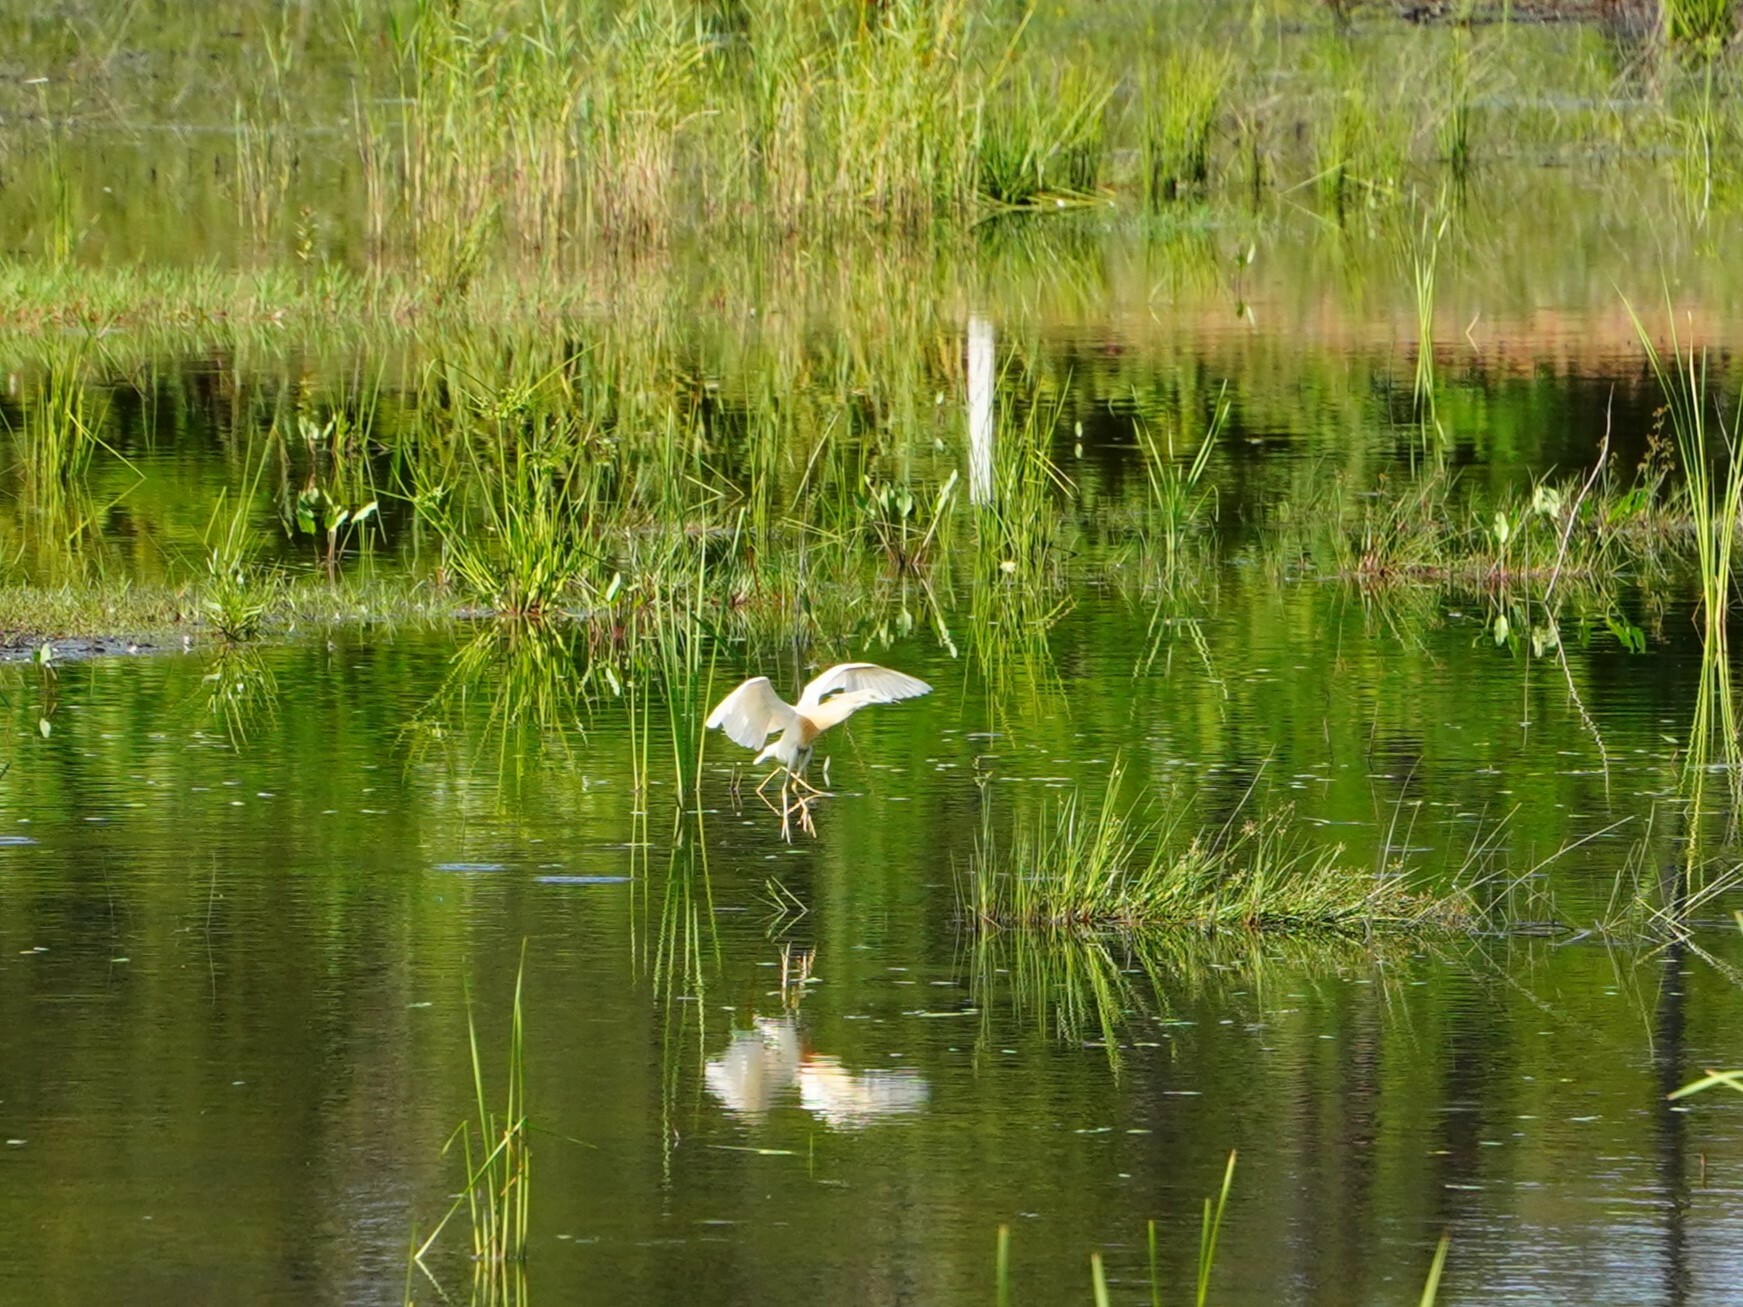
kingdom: Animalia
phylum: Chordata
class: Aves
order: Pelecaniformes
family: Ardeidae
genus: Ardeola
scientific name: Ardeola ralloides
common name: Squacco heron
